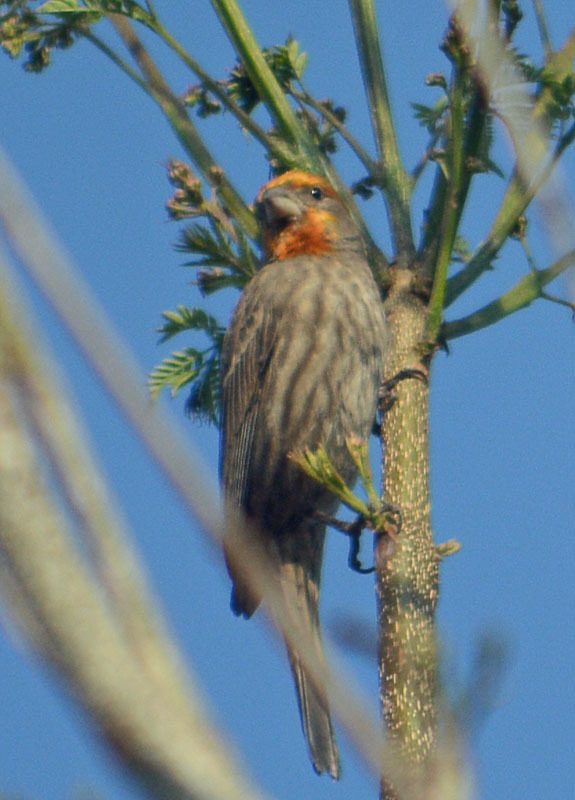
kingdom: Animalia
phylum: Chordata
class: Aves
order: Passeriformes
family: Fringillidae
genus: Haemorhous
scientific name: Haemorhous mexicanus
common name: House finch
